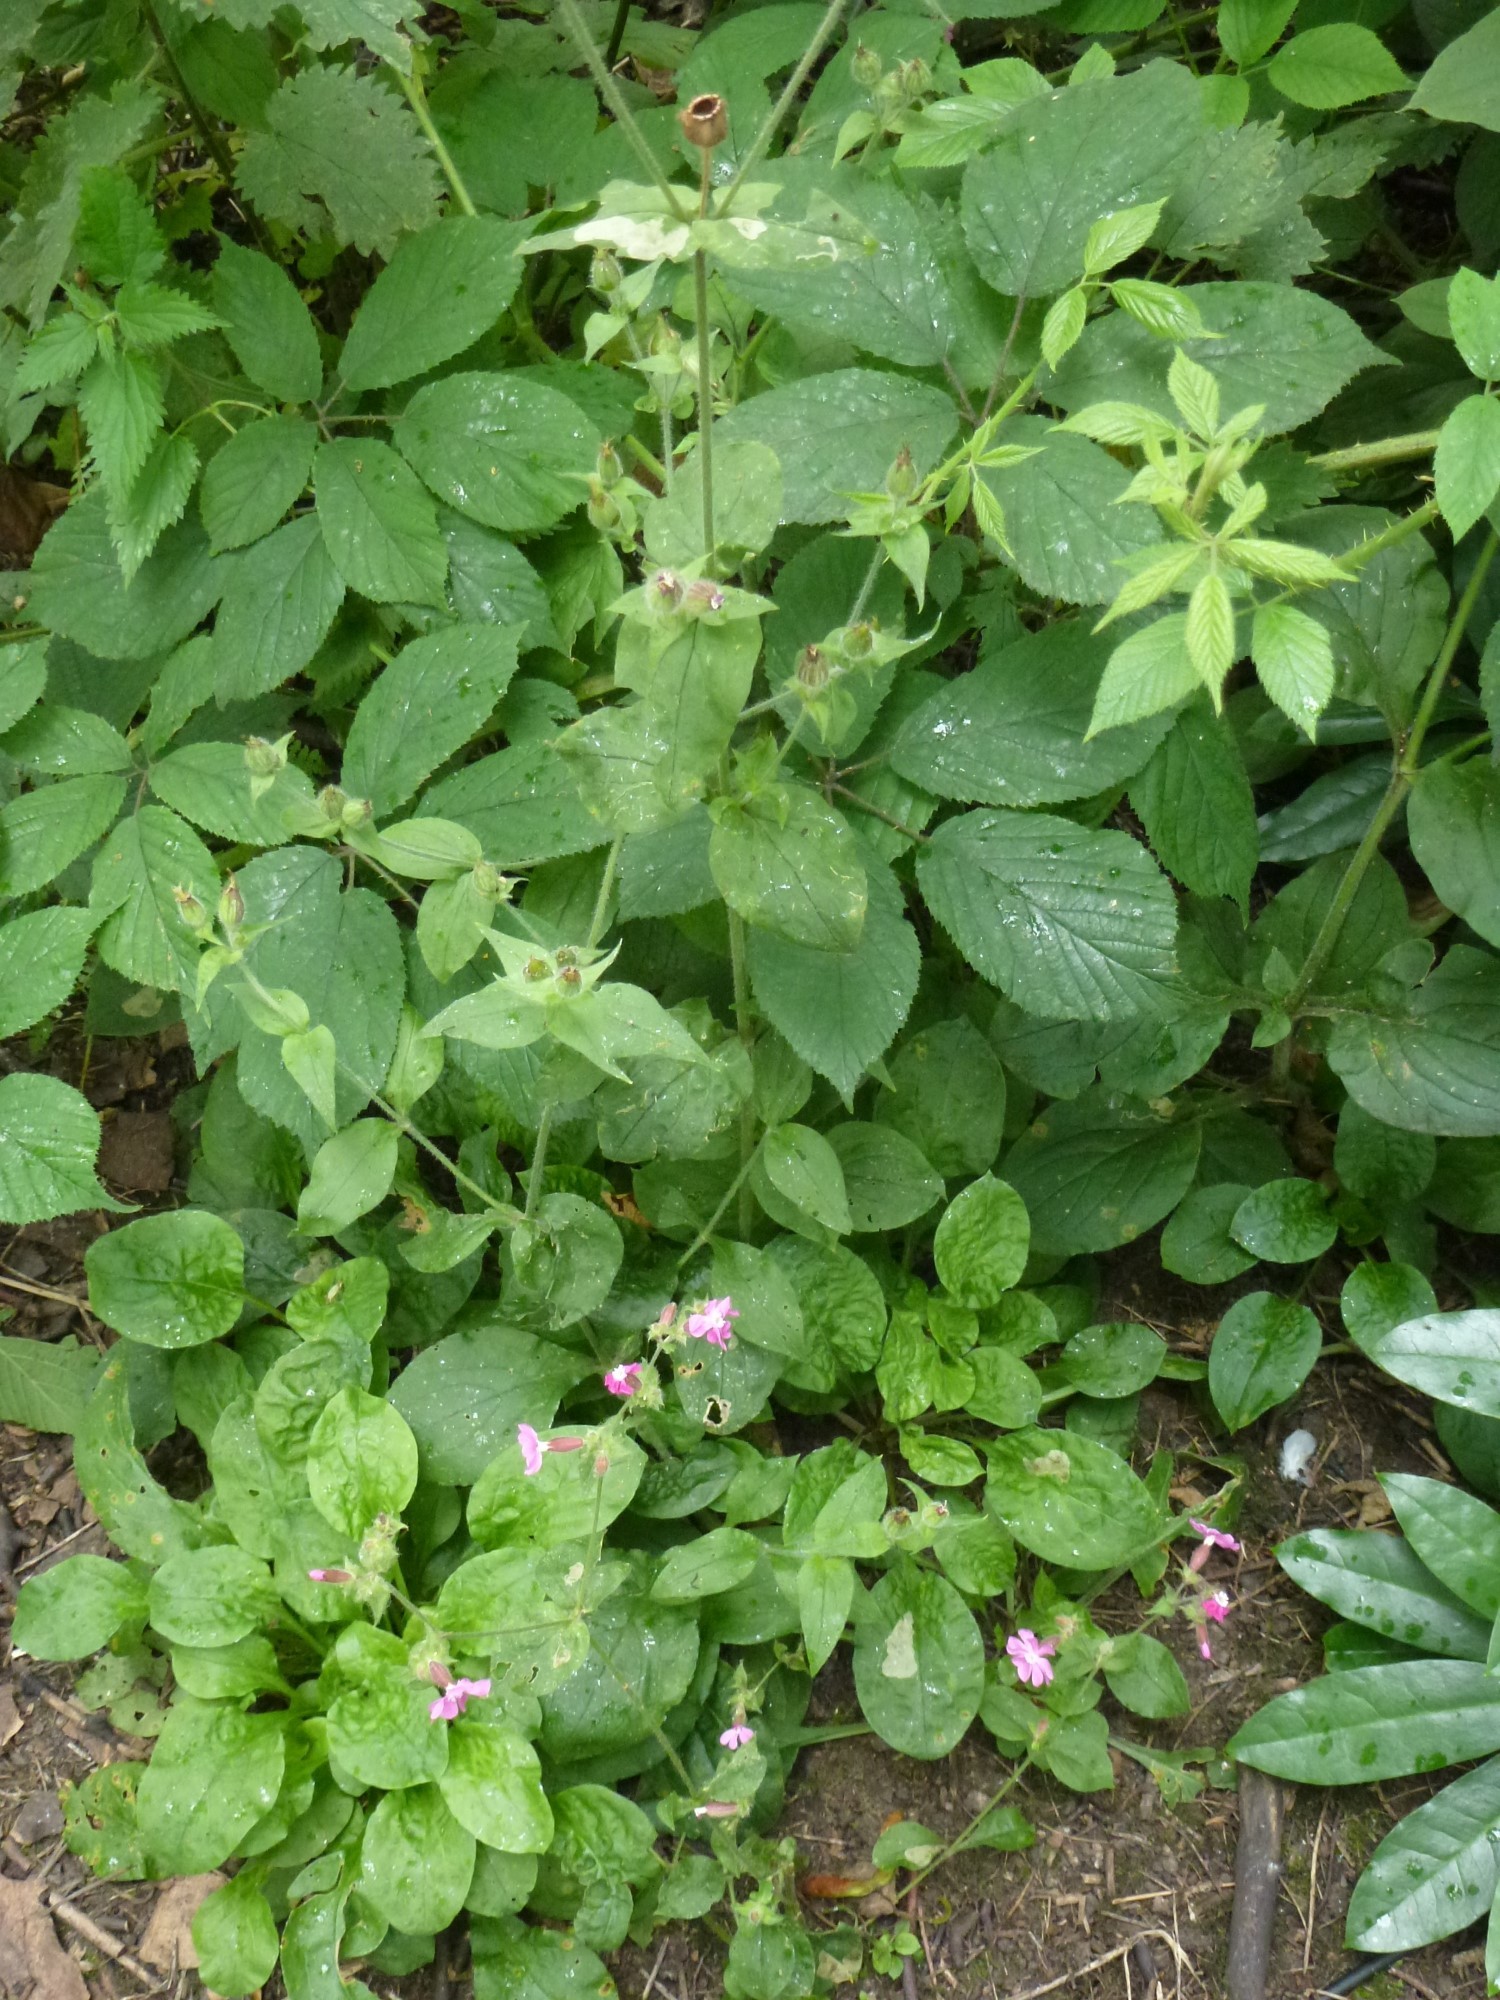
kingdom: Plantae
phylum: Tracheophyta
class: Magnoliopsida
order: Caryophyllales
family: Caryophyllaceae
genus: Silene
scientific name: Silene dioica
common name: Red campion
